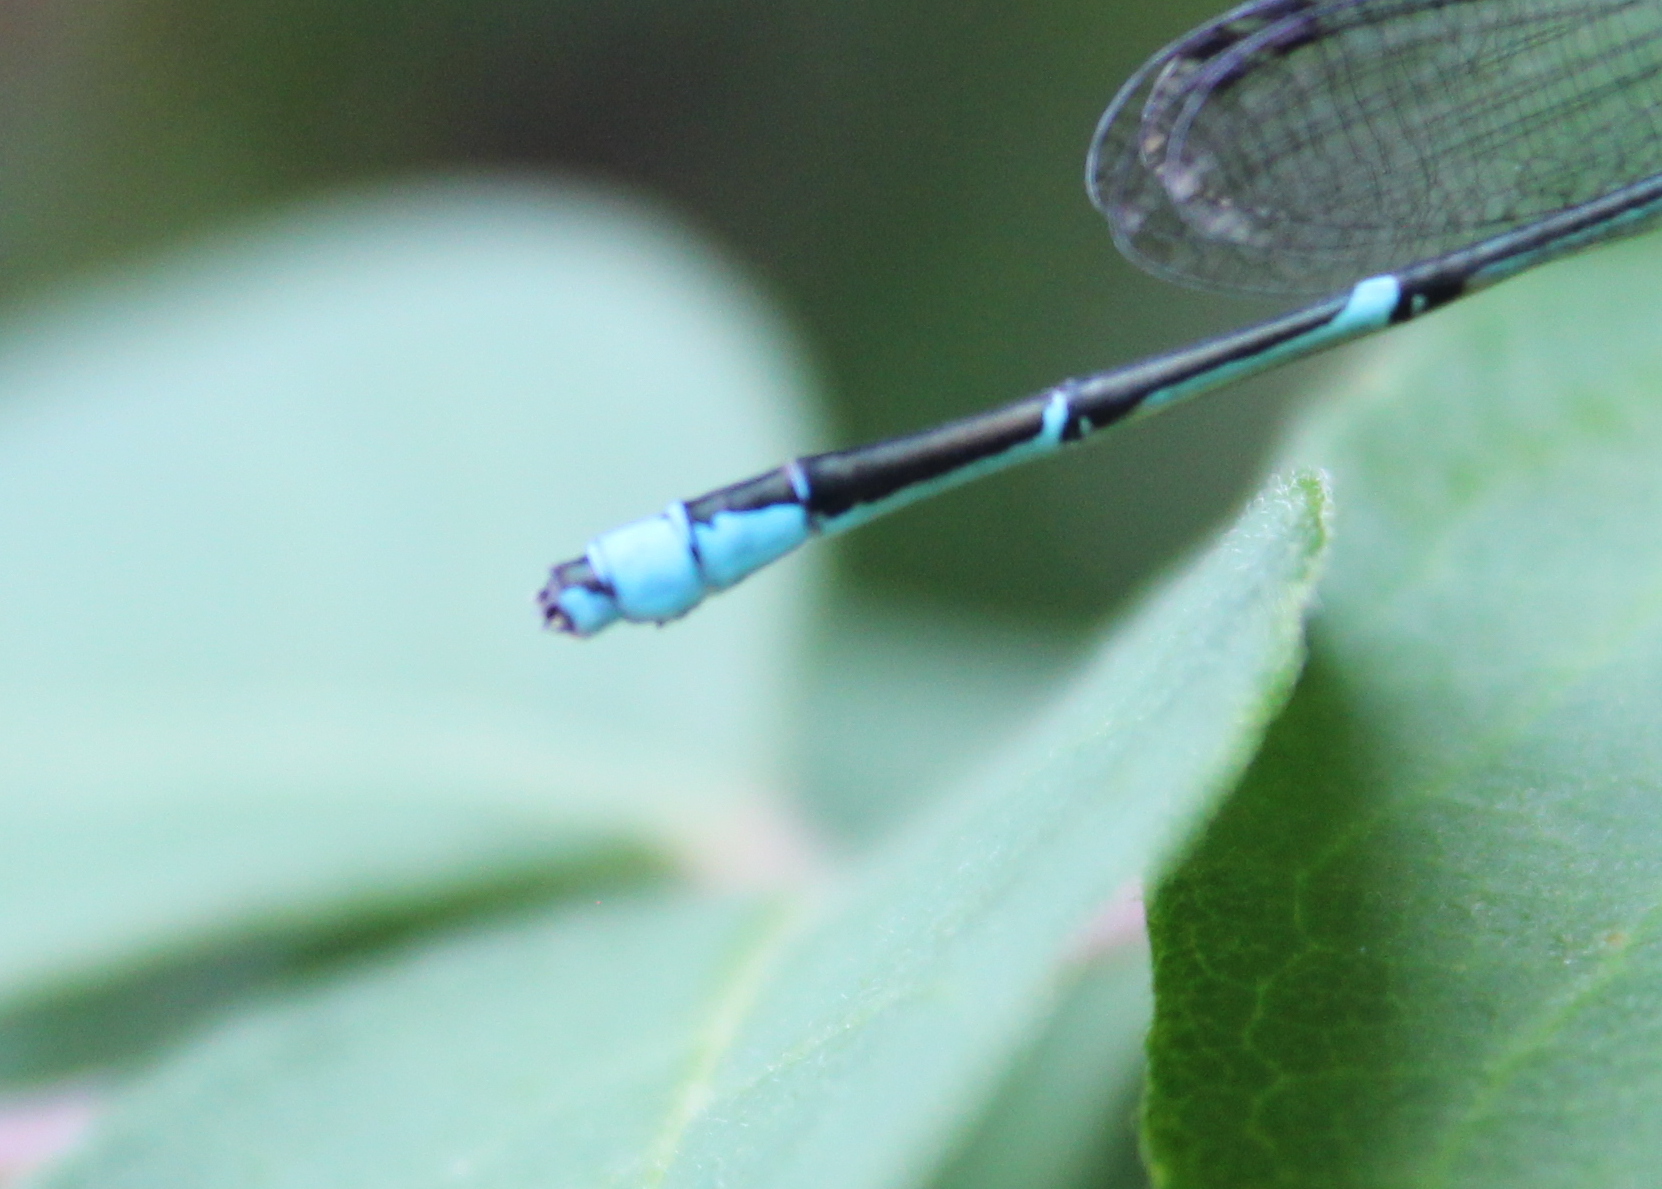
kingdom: Animalia
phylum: Arthropoda
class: Insecta
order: Odonata
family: Coenagrionidae
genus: Enallagma
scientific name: Enallagma exsulans
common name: Stream bluet
